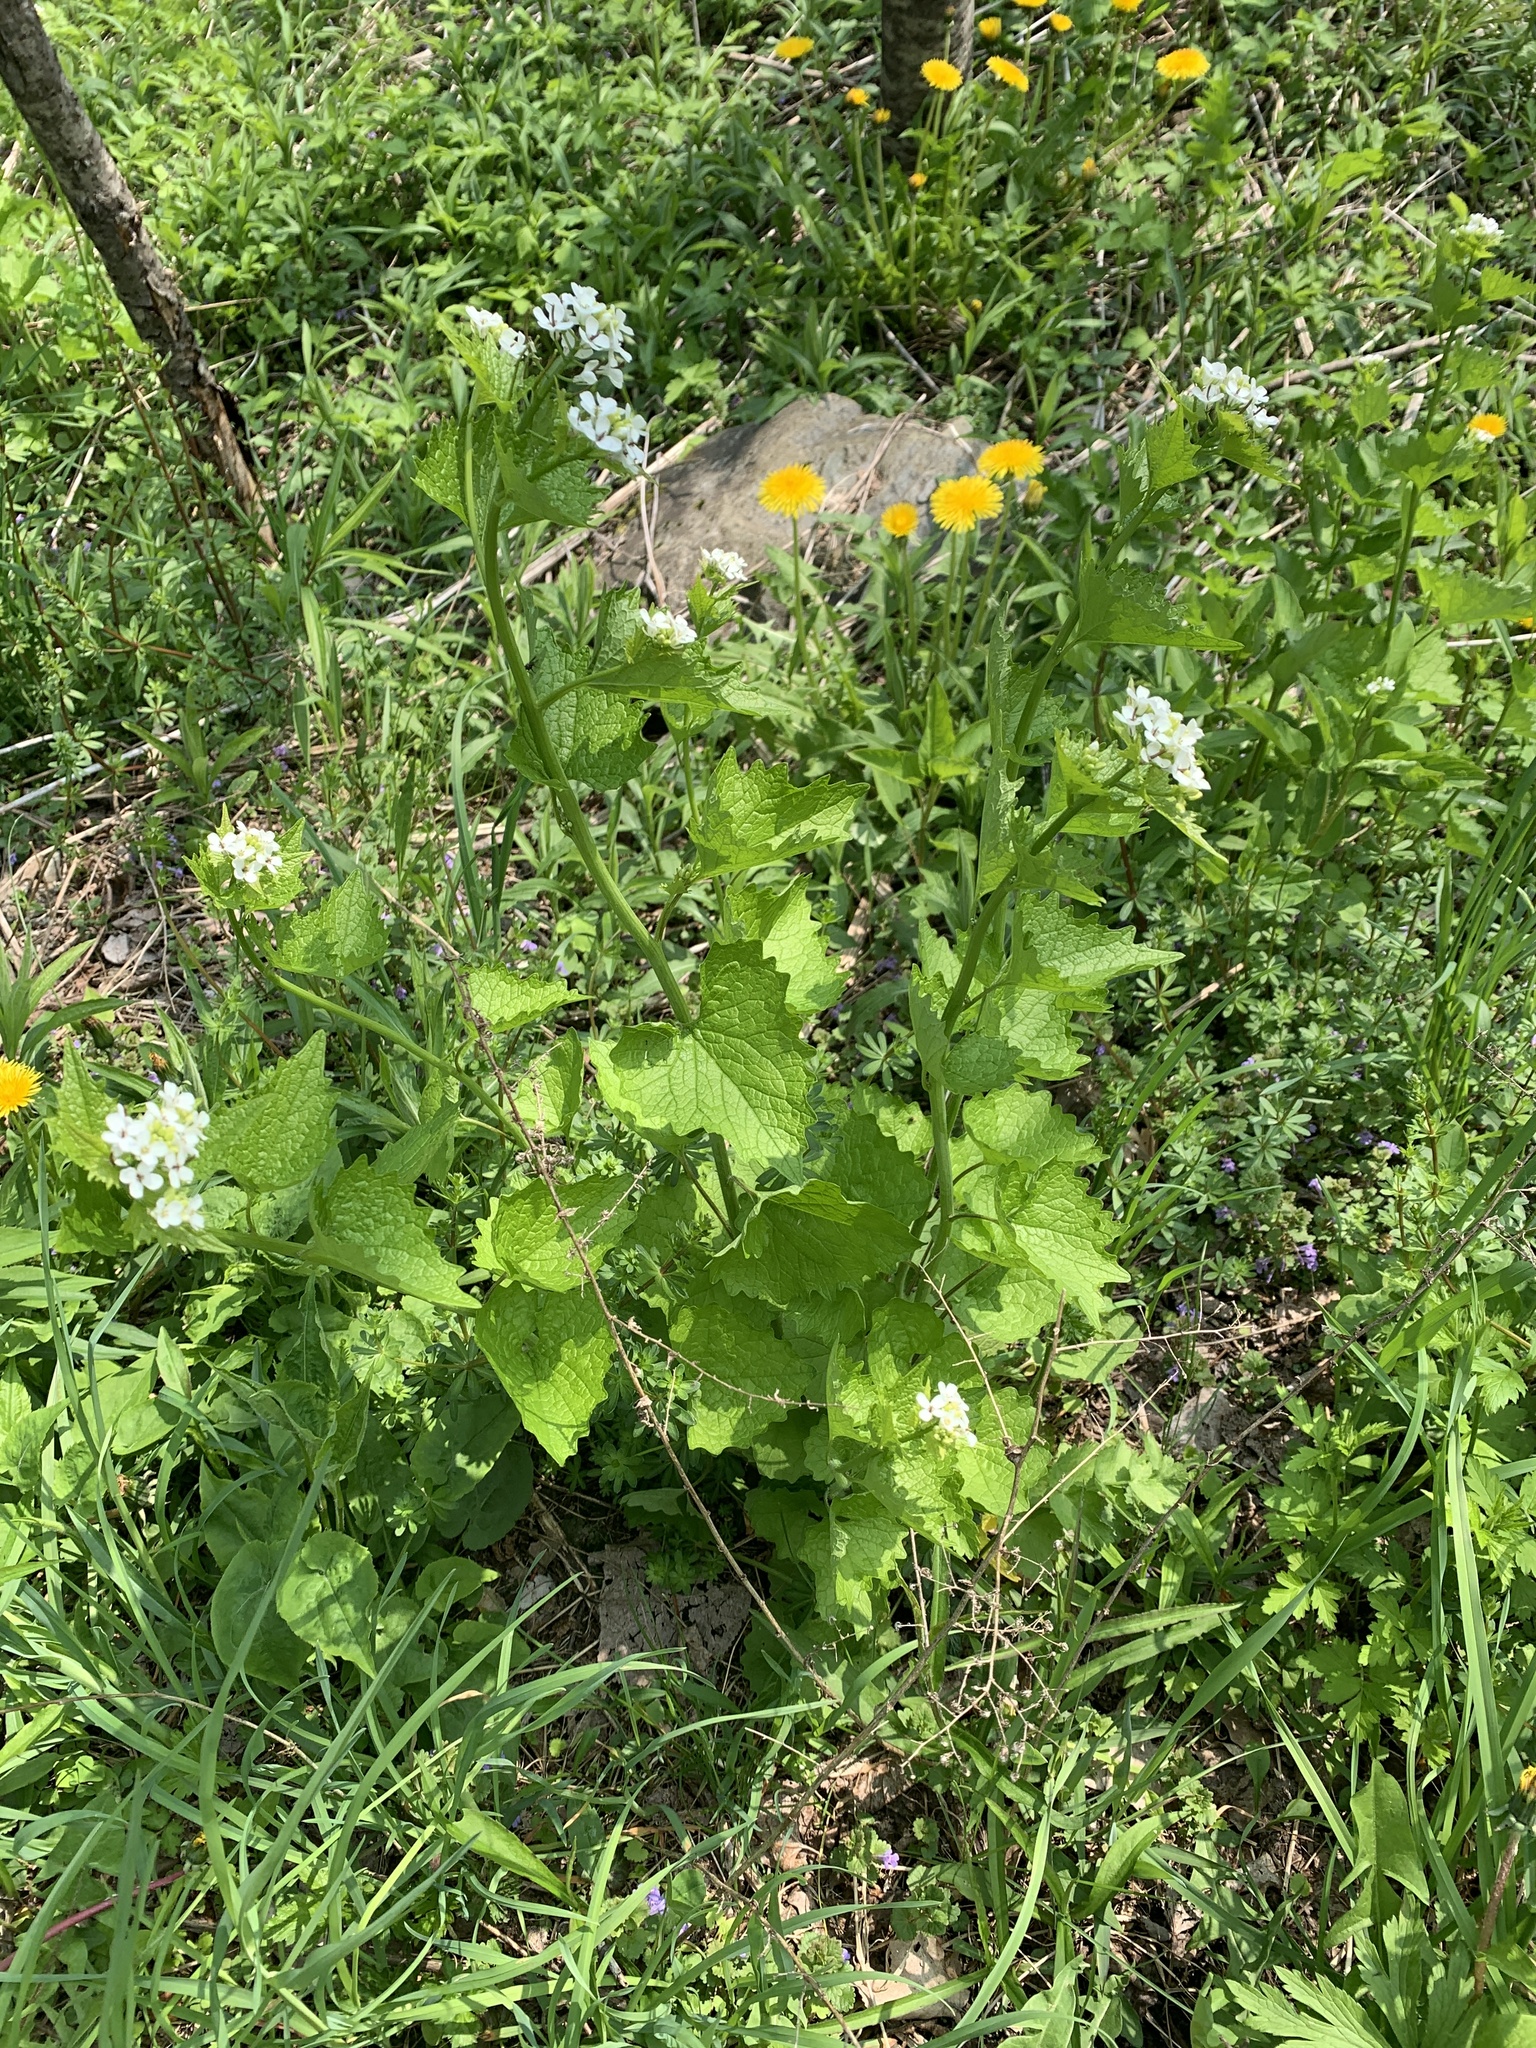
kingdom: Plantae
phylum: Tracheophyta
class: Magnoliopsida
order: Brassicales
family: Brassicaceae
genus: Alliaria
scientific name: Alliaria petiolata
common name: Garlic mustard
